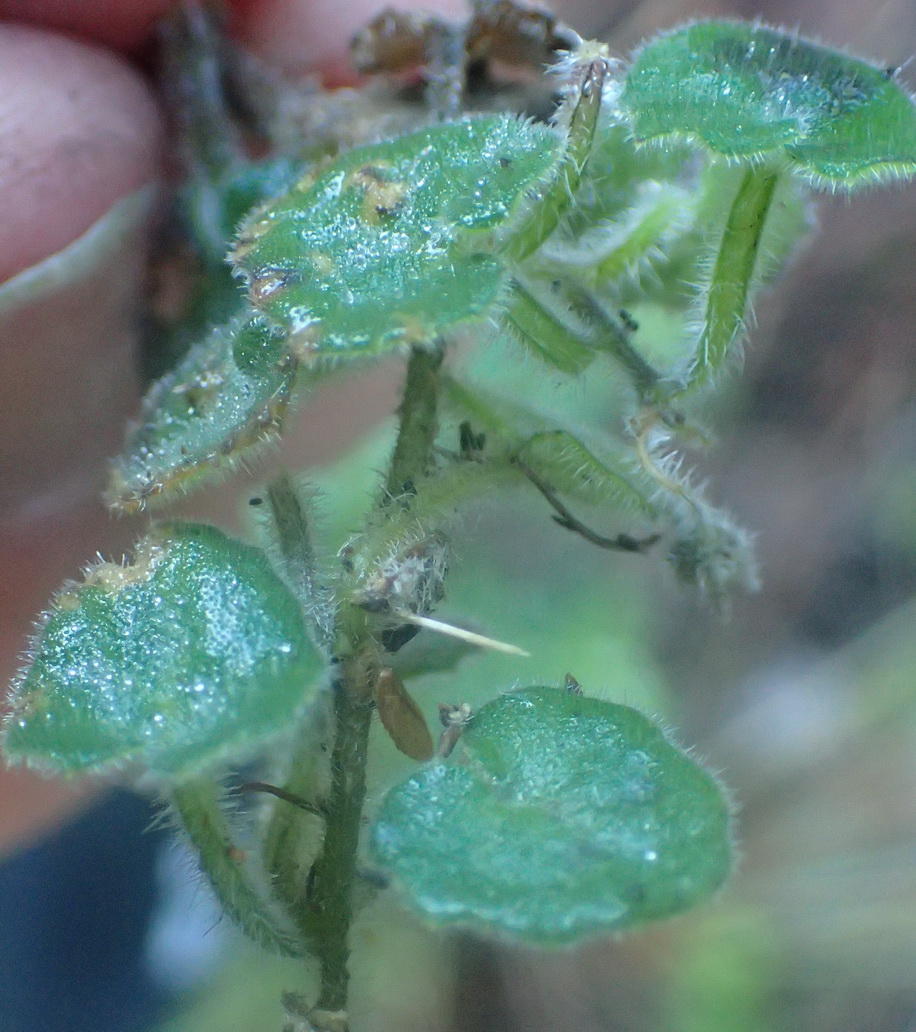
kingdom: Plantae
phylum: Tracheophyta
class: Magnoliopsida
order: Asterales
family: Campanulaceae
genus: Lobelia
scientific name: Lobelia ardisiandroides
